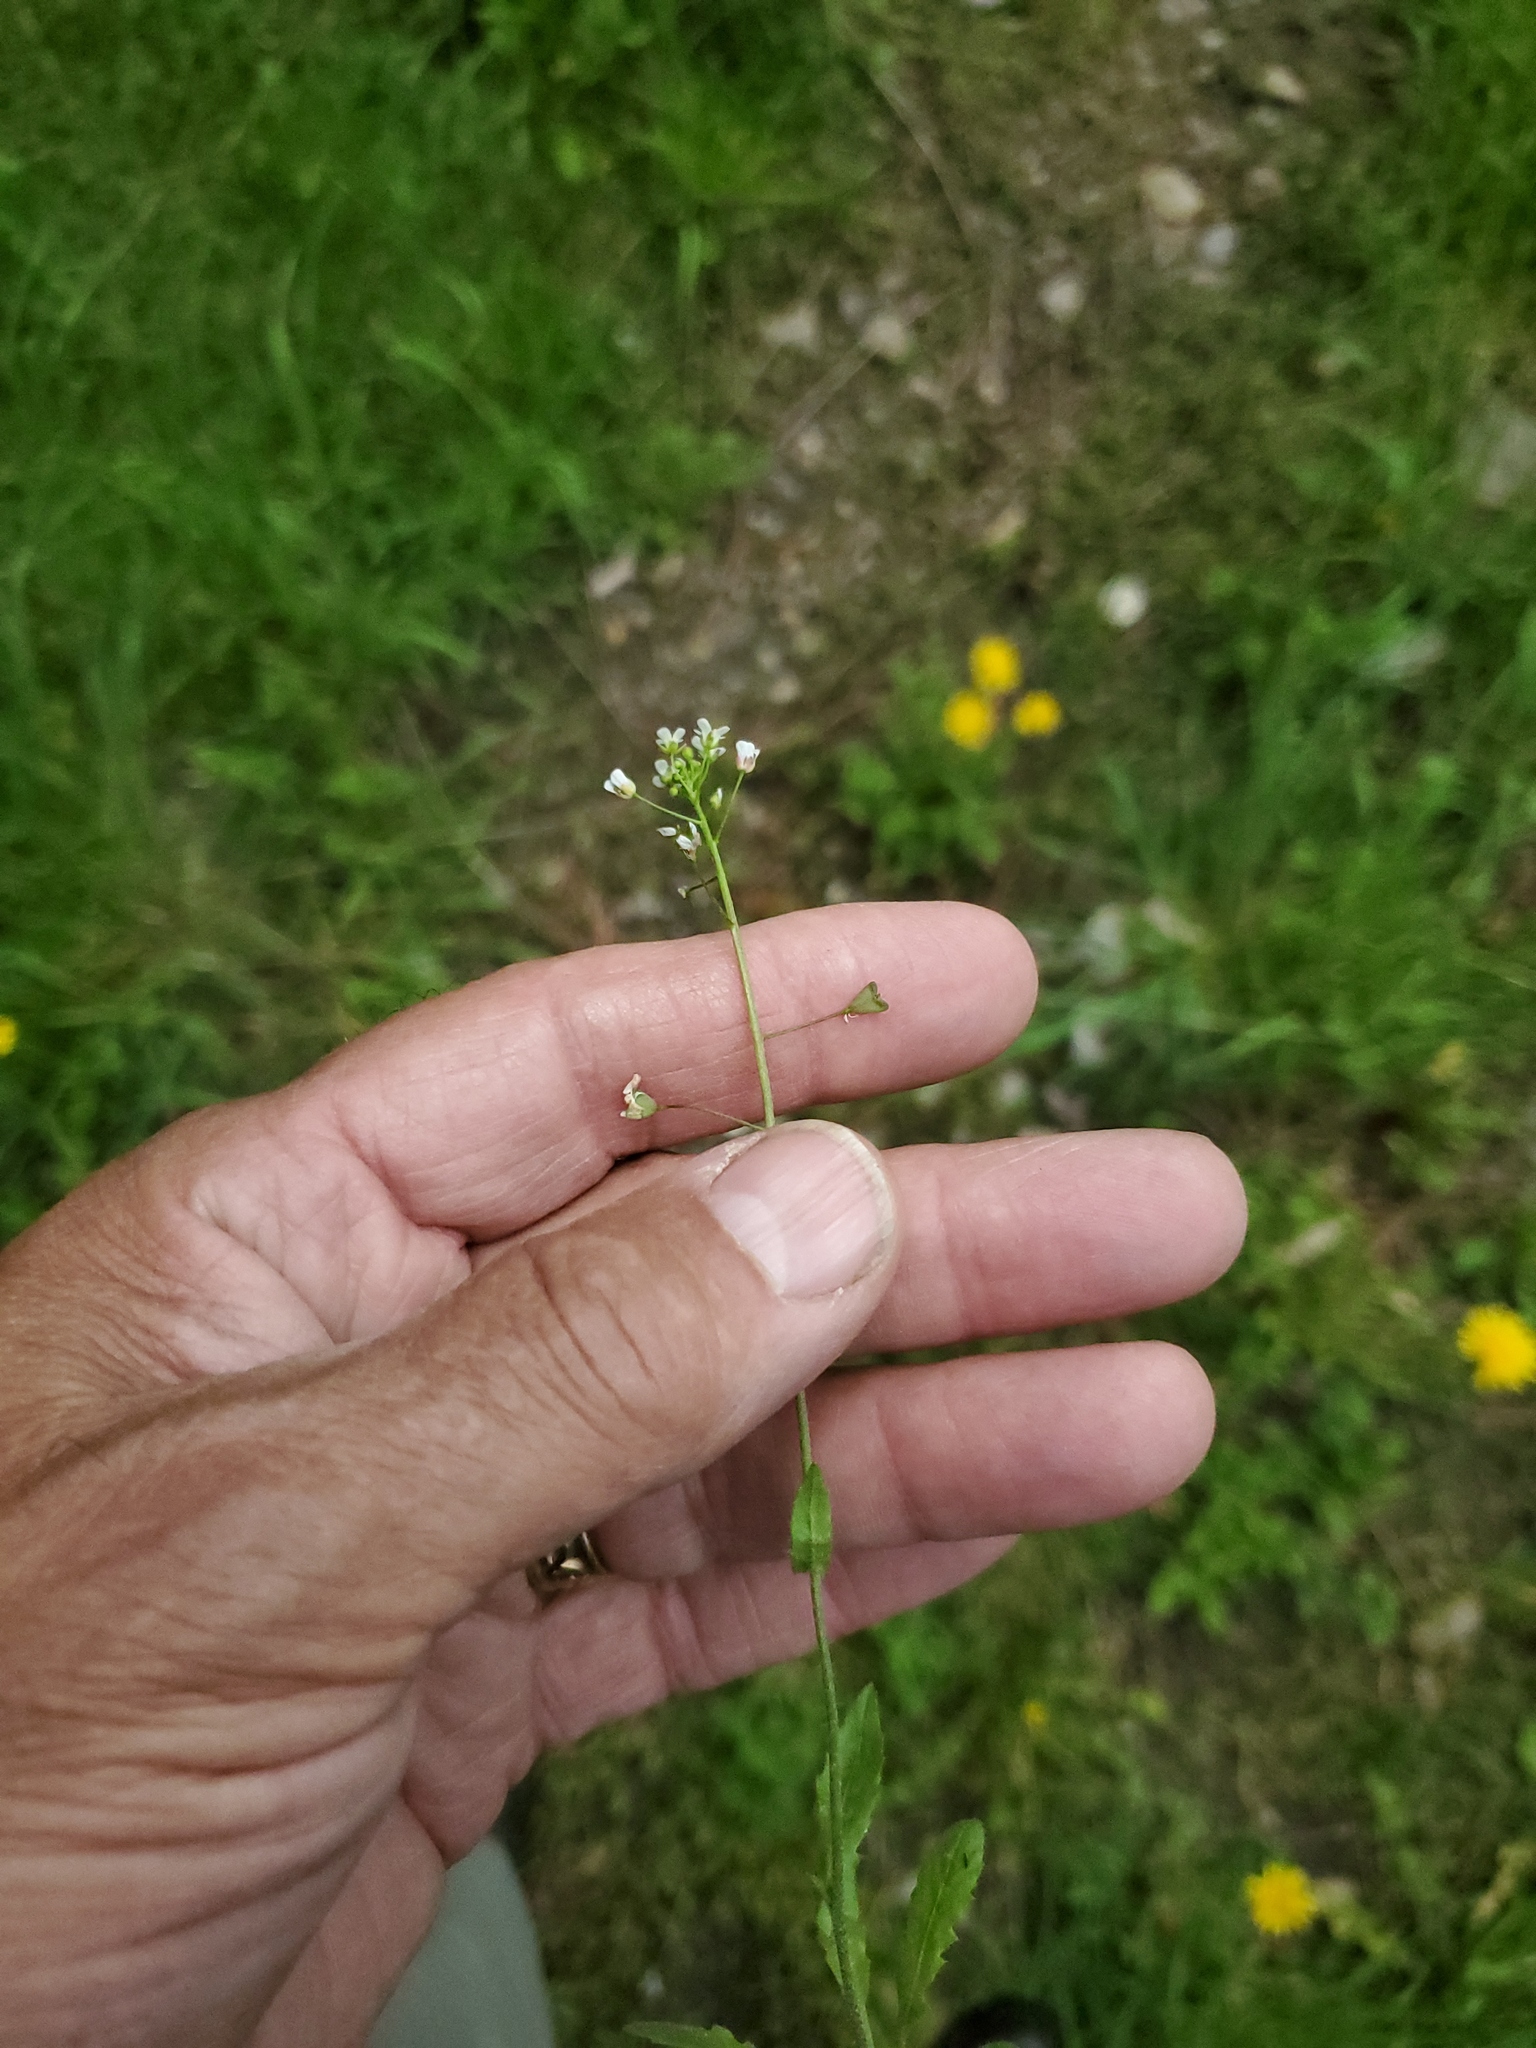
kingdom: Plantae
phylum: Tracheophyta
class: Magnoliopsida
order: Brassicales
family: Brassicaceae
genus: Capsella
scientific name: Capsella bursa-pastoris
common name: Shepherd's purse
